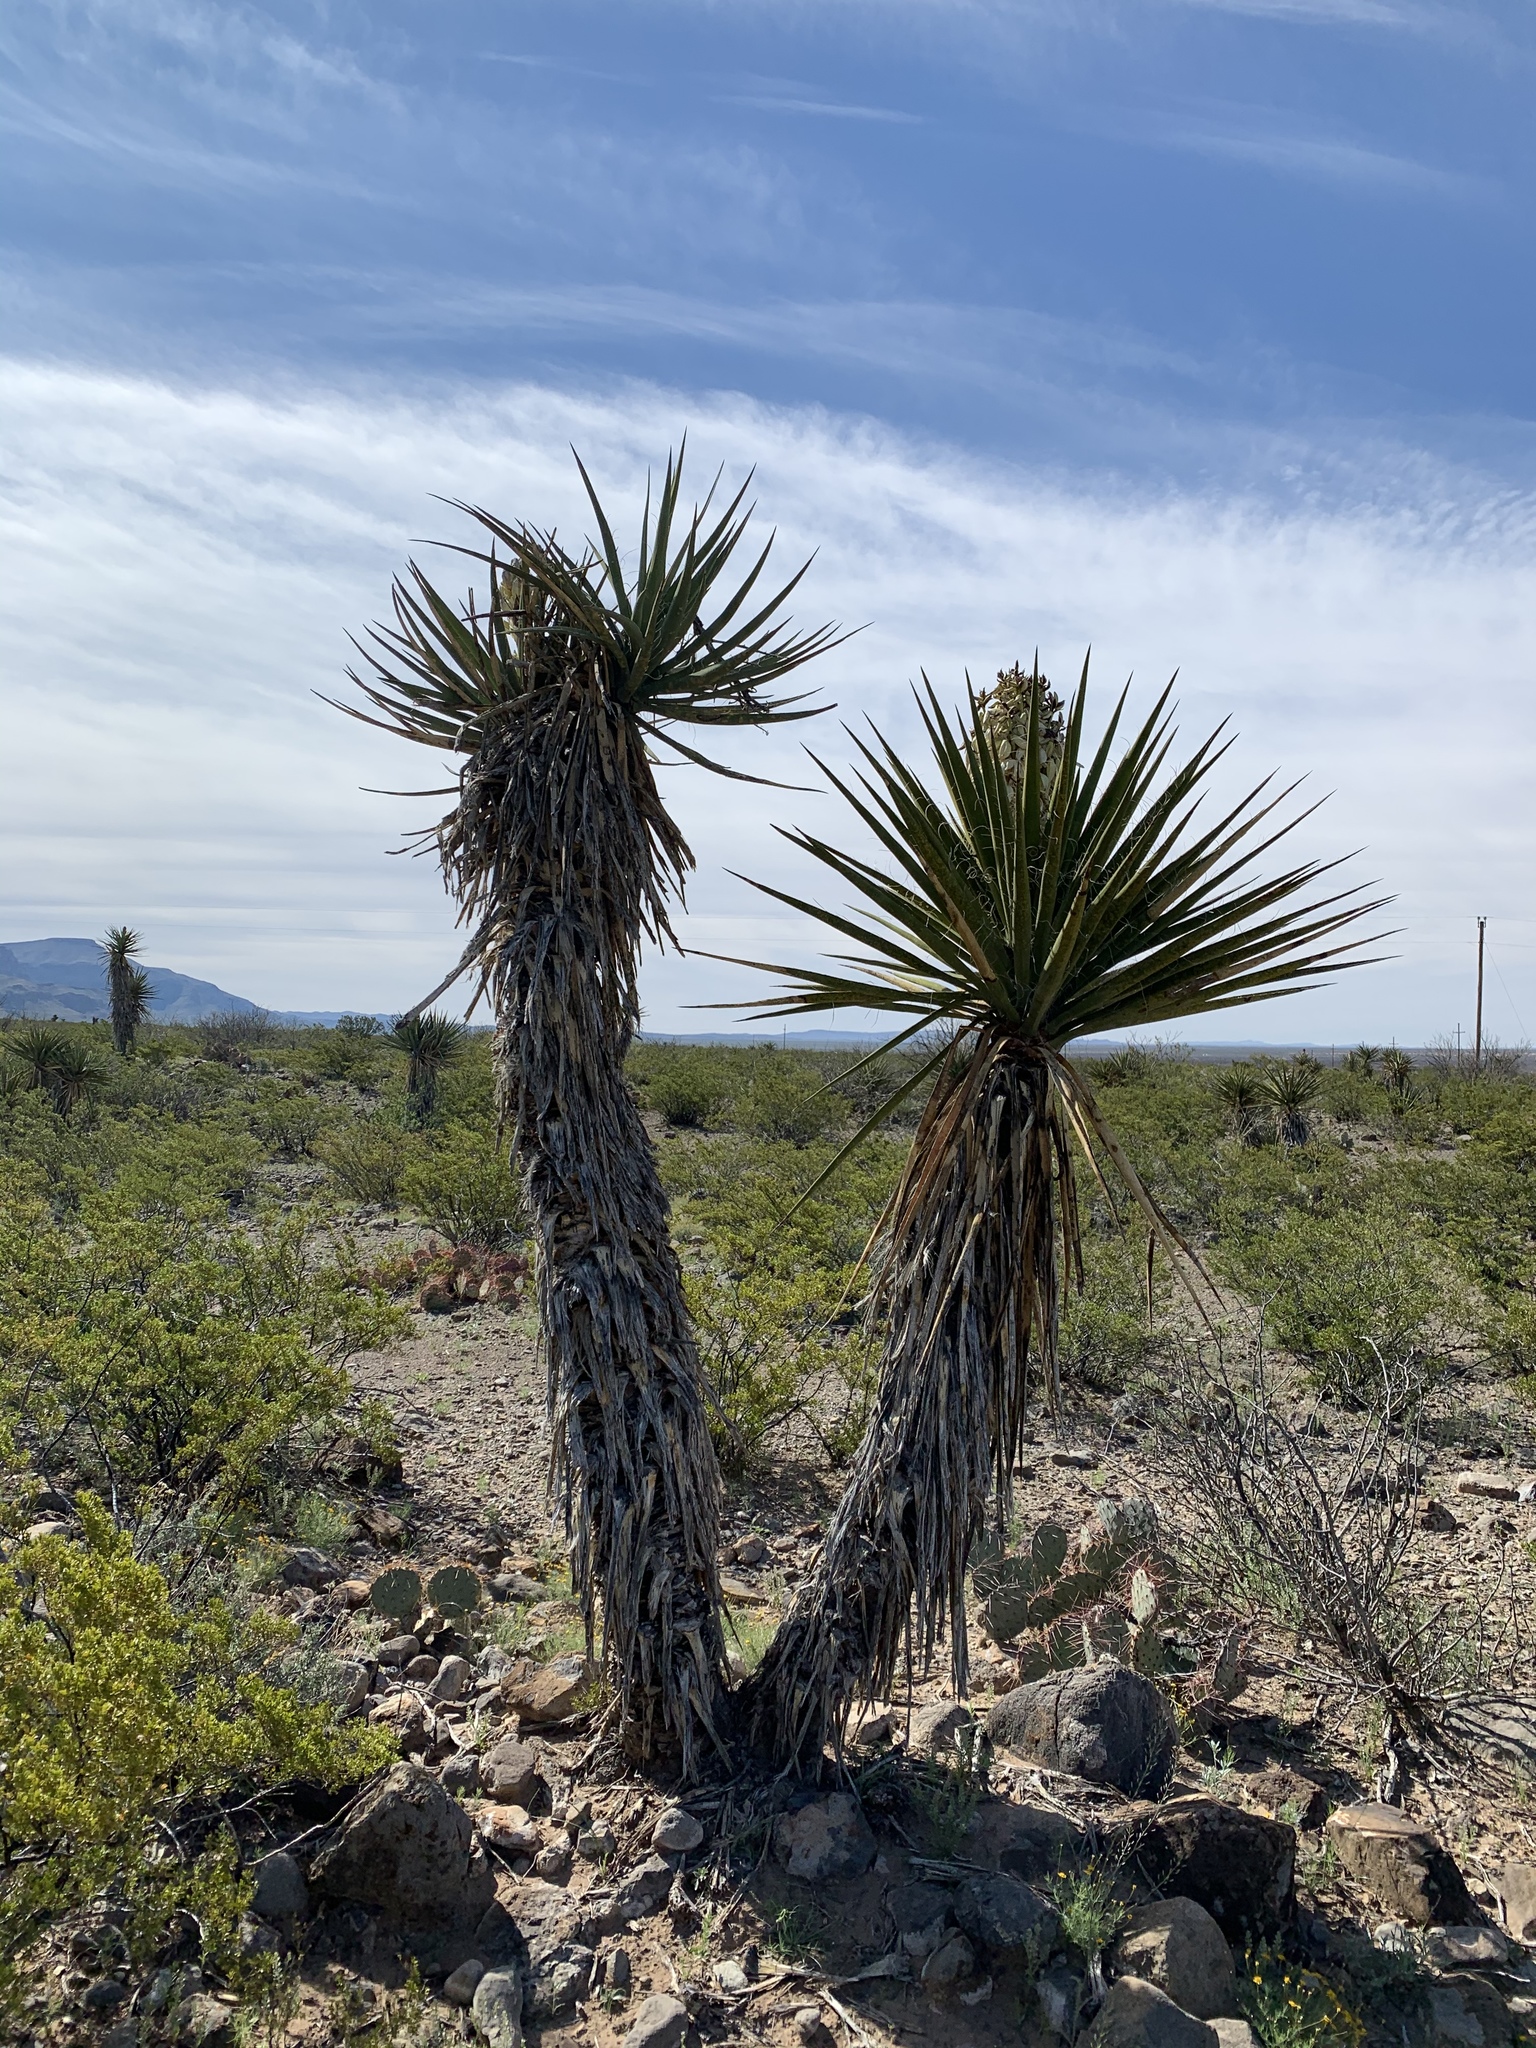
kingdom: Plantae
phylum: Tracheophyta
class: Liliopsida
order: Asparagales
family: Asparagaceae
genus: Yucca
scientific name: Yucca treculiana
